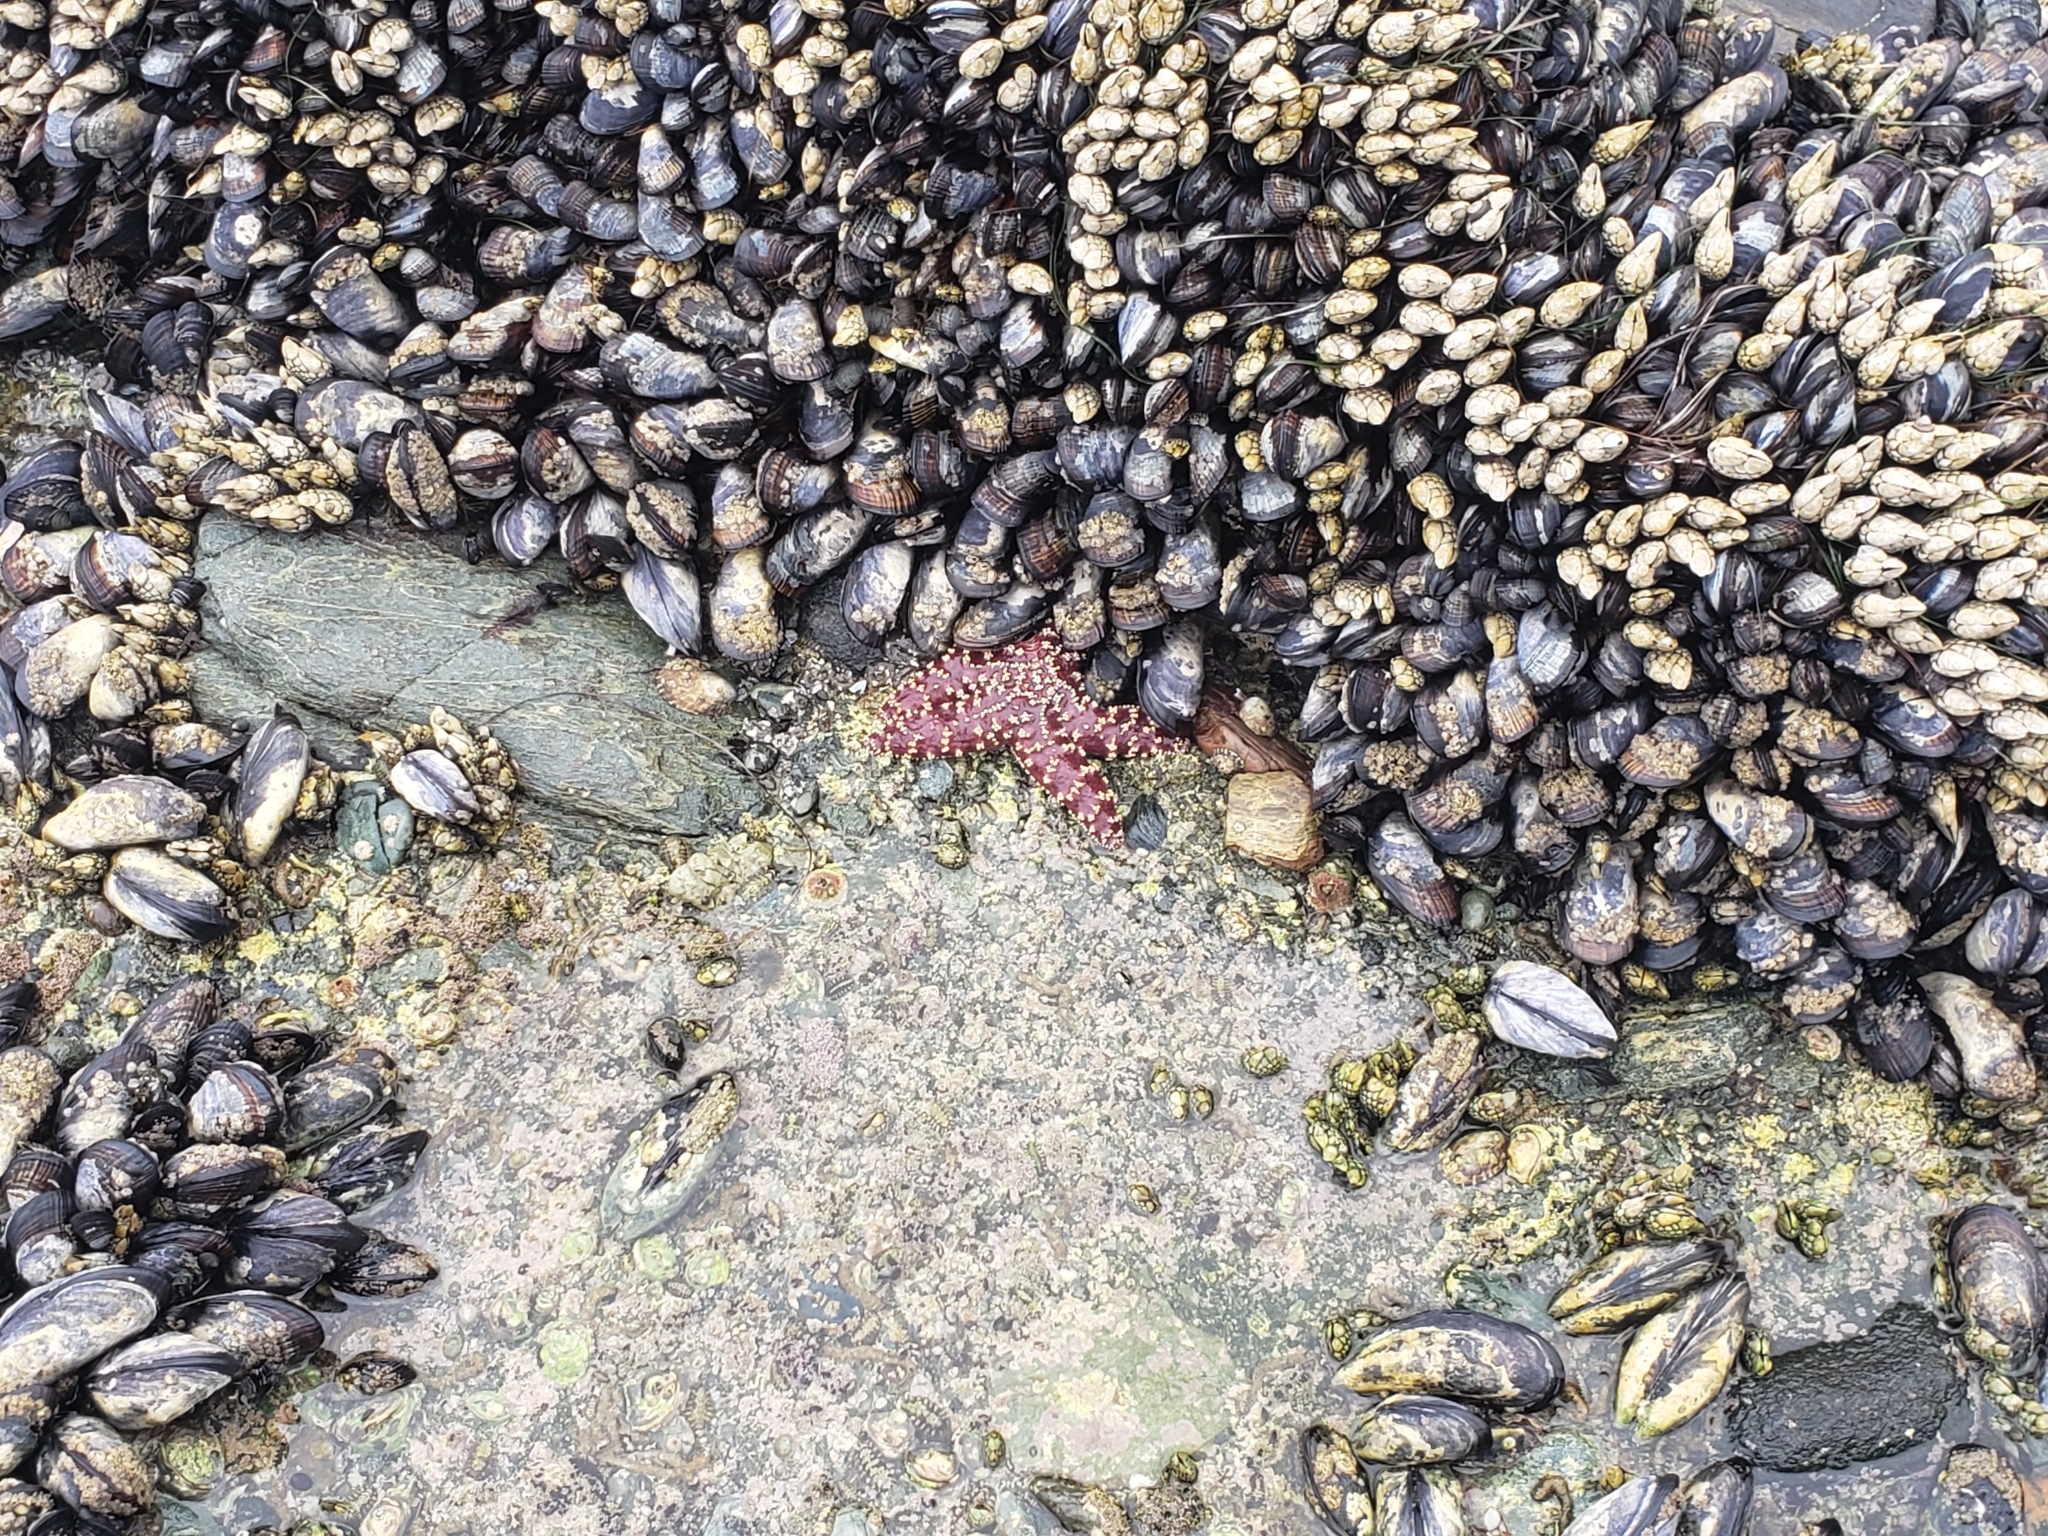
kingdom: Animalia
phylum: Echinodermata
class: Asteroidea
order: Forcipulatida
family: Asteriidae
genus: Pisaster
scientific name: Pisaster ochraceus
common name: Ochre stars
